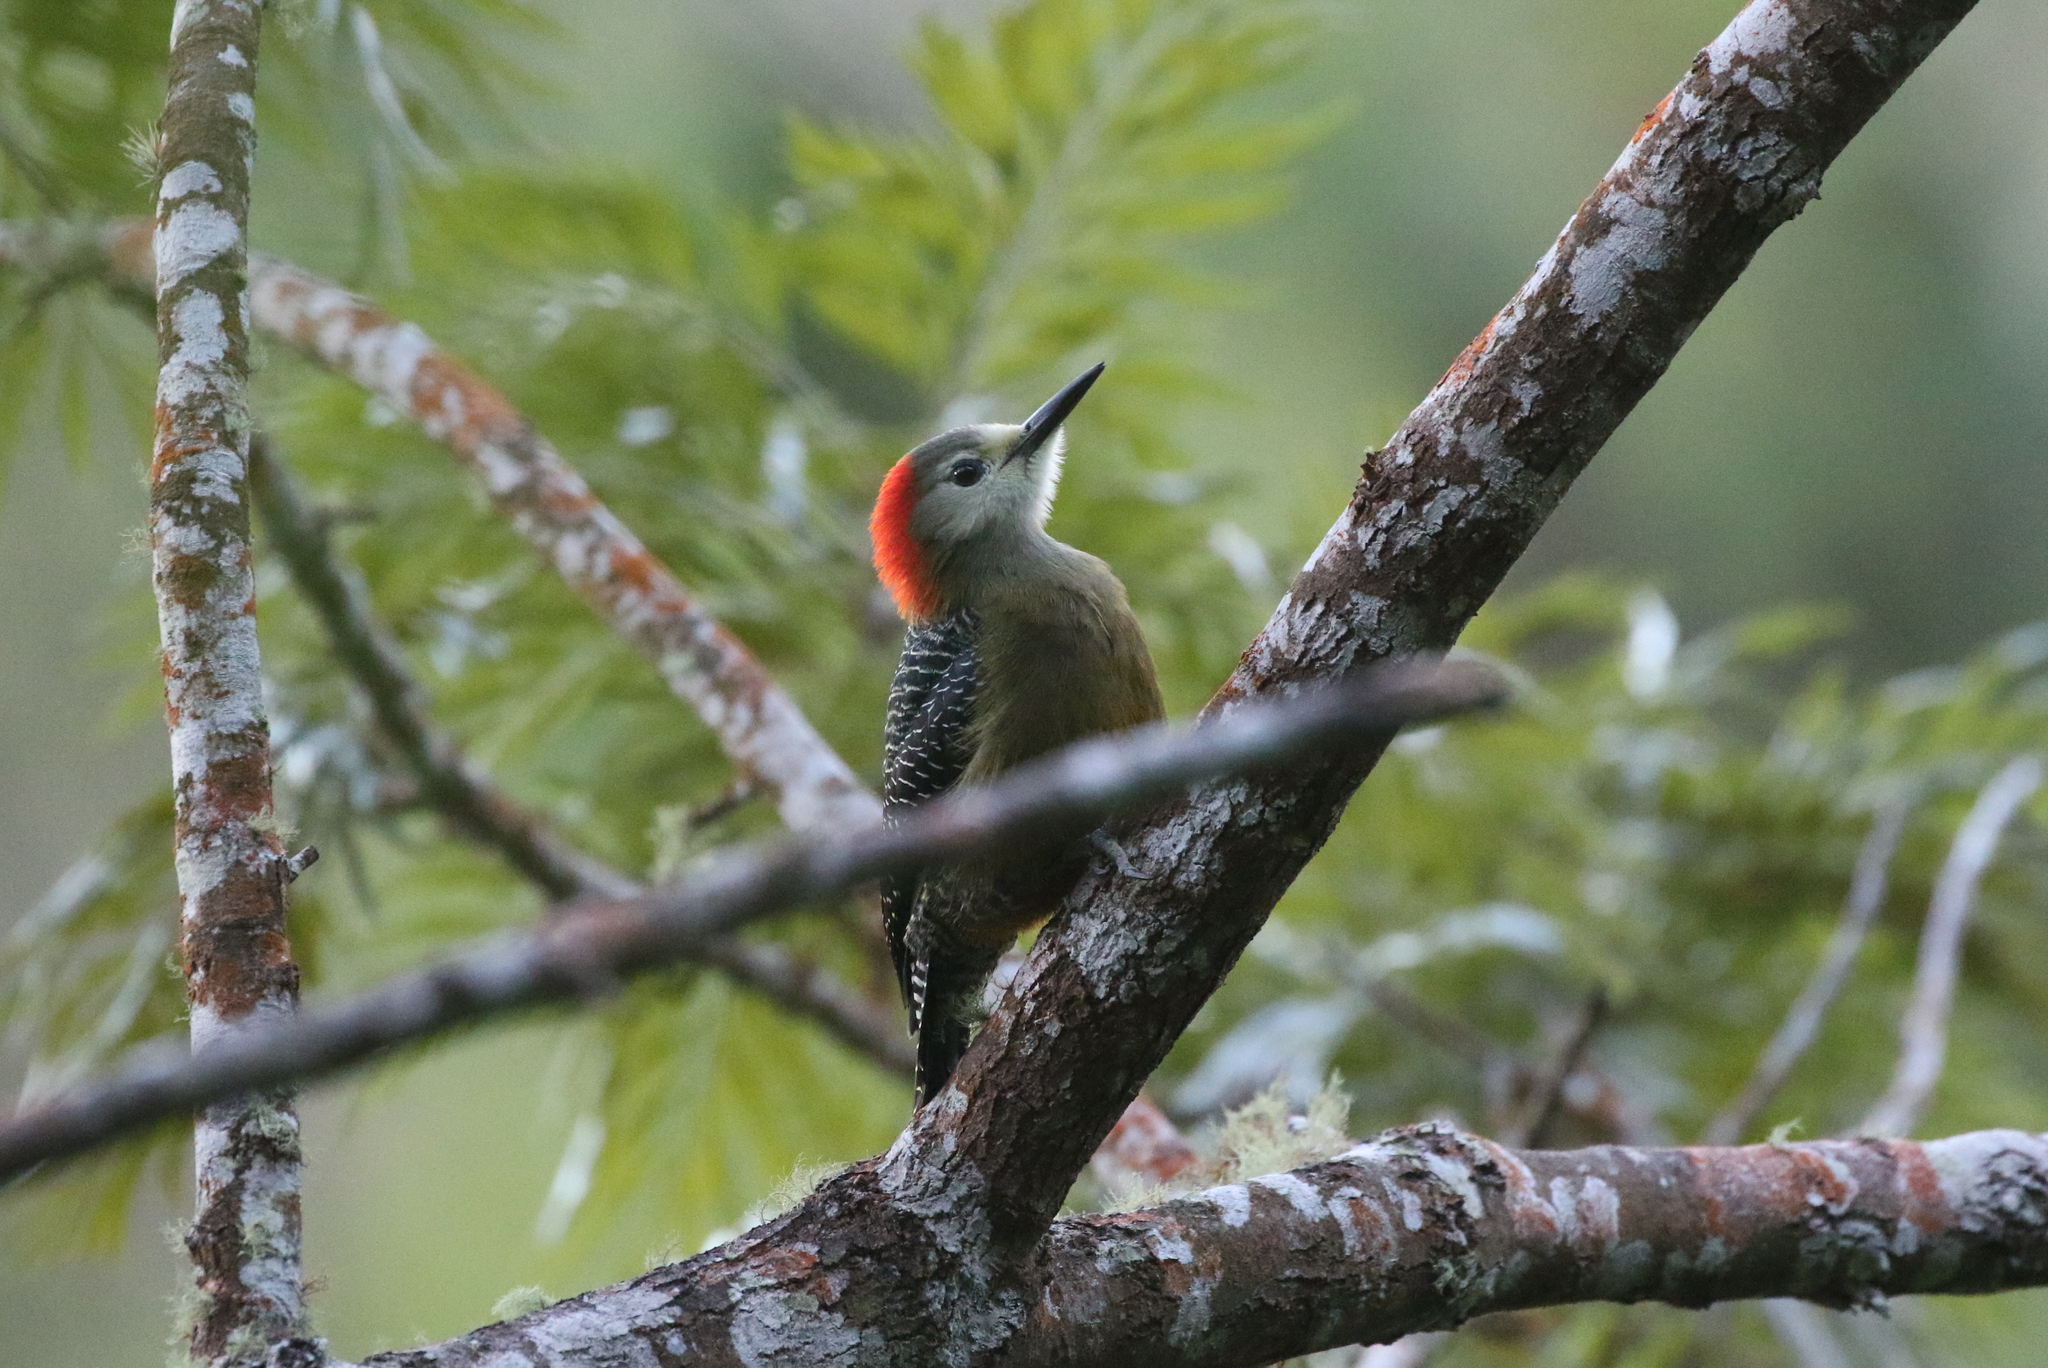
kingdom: Animalia
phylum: Chordata
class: Aves
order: Piciformes
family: Picidae
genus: Melanerpes
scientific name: Melanerpes radiolatus
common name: Jamaican woodpecker
